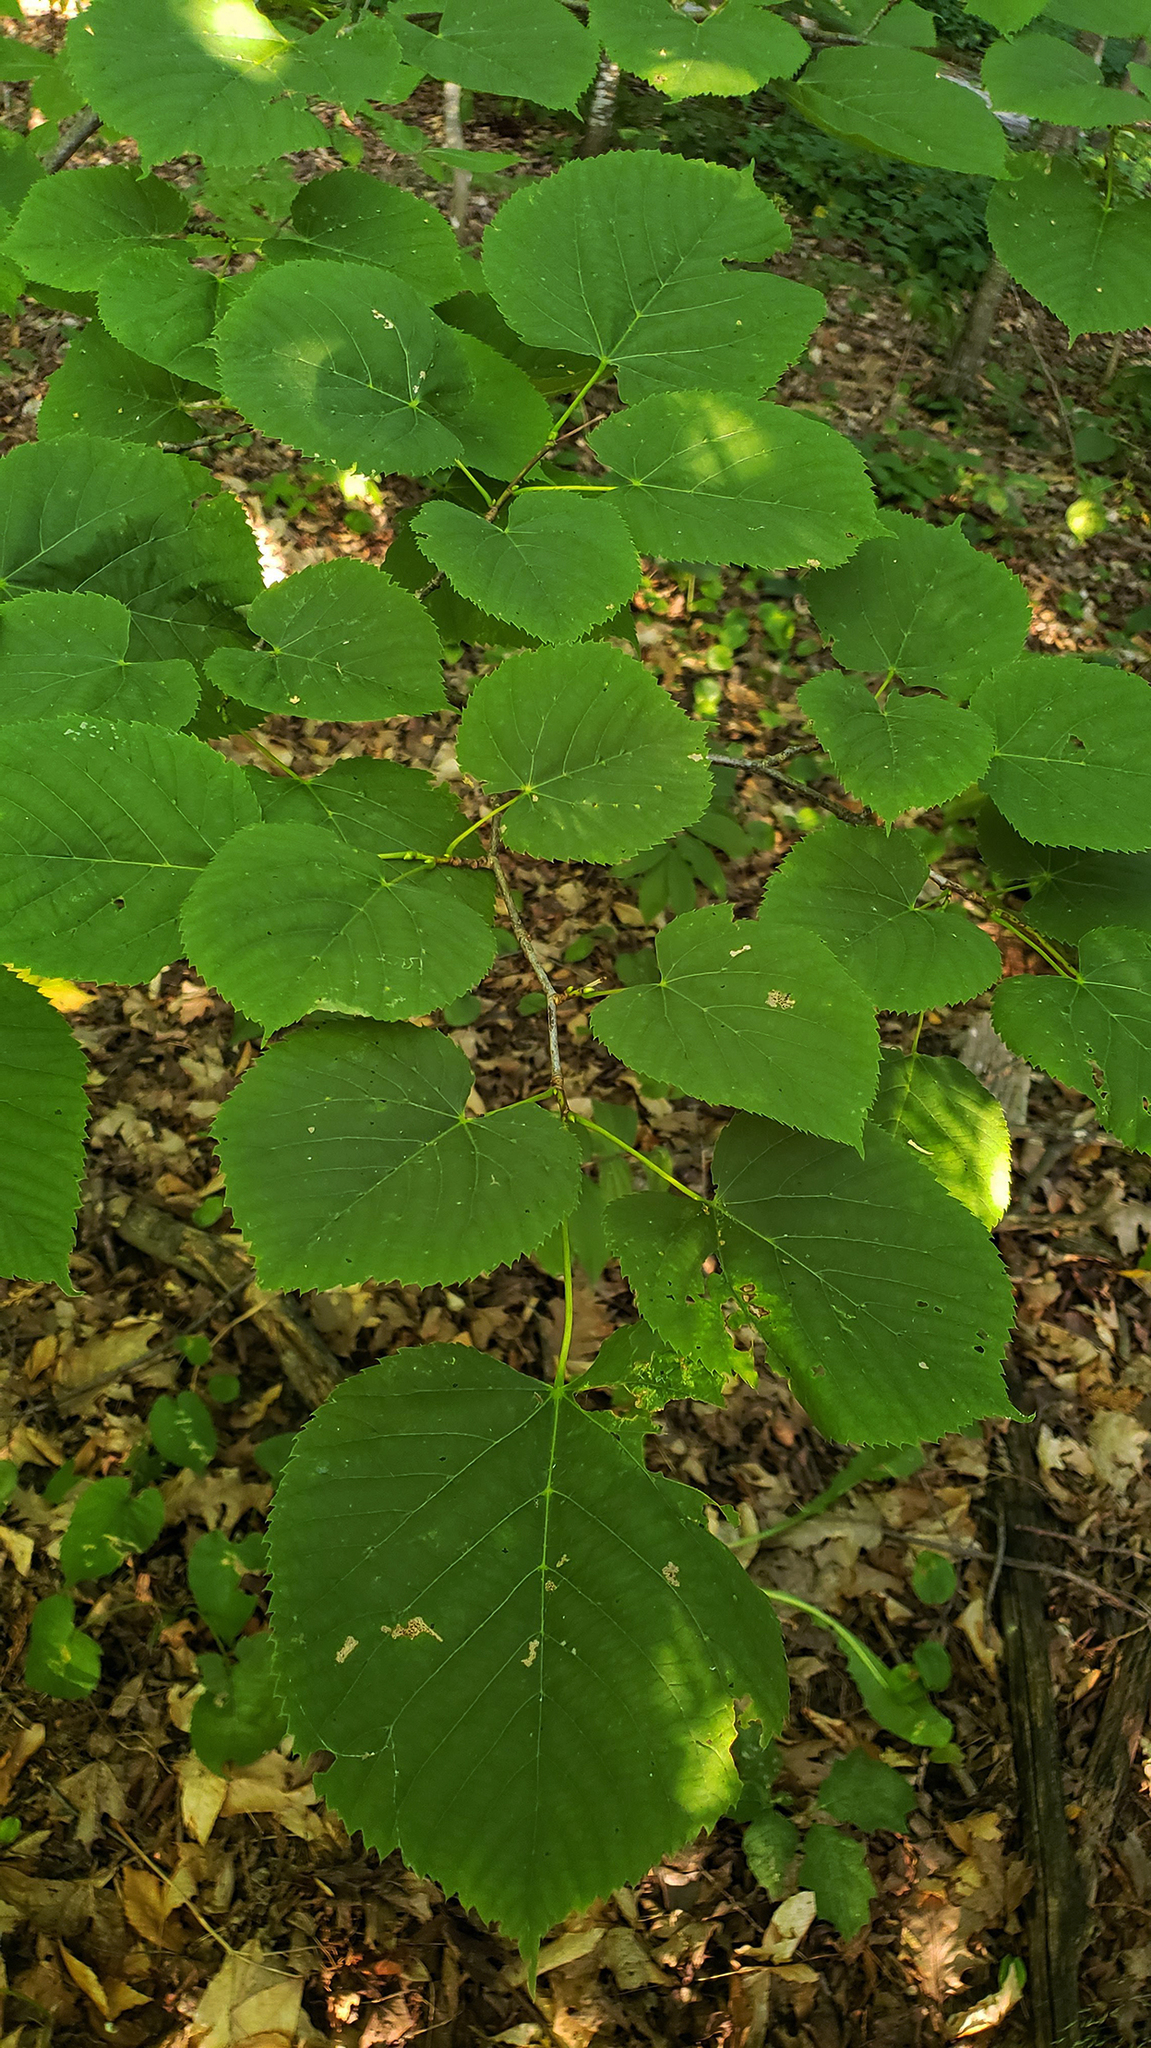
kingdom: Plantae
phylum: Tracheophyta
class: Magnoliopsida
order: Malvales
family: Malvaceae
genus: Tilia
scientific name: Tilia americana
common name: Basswood
